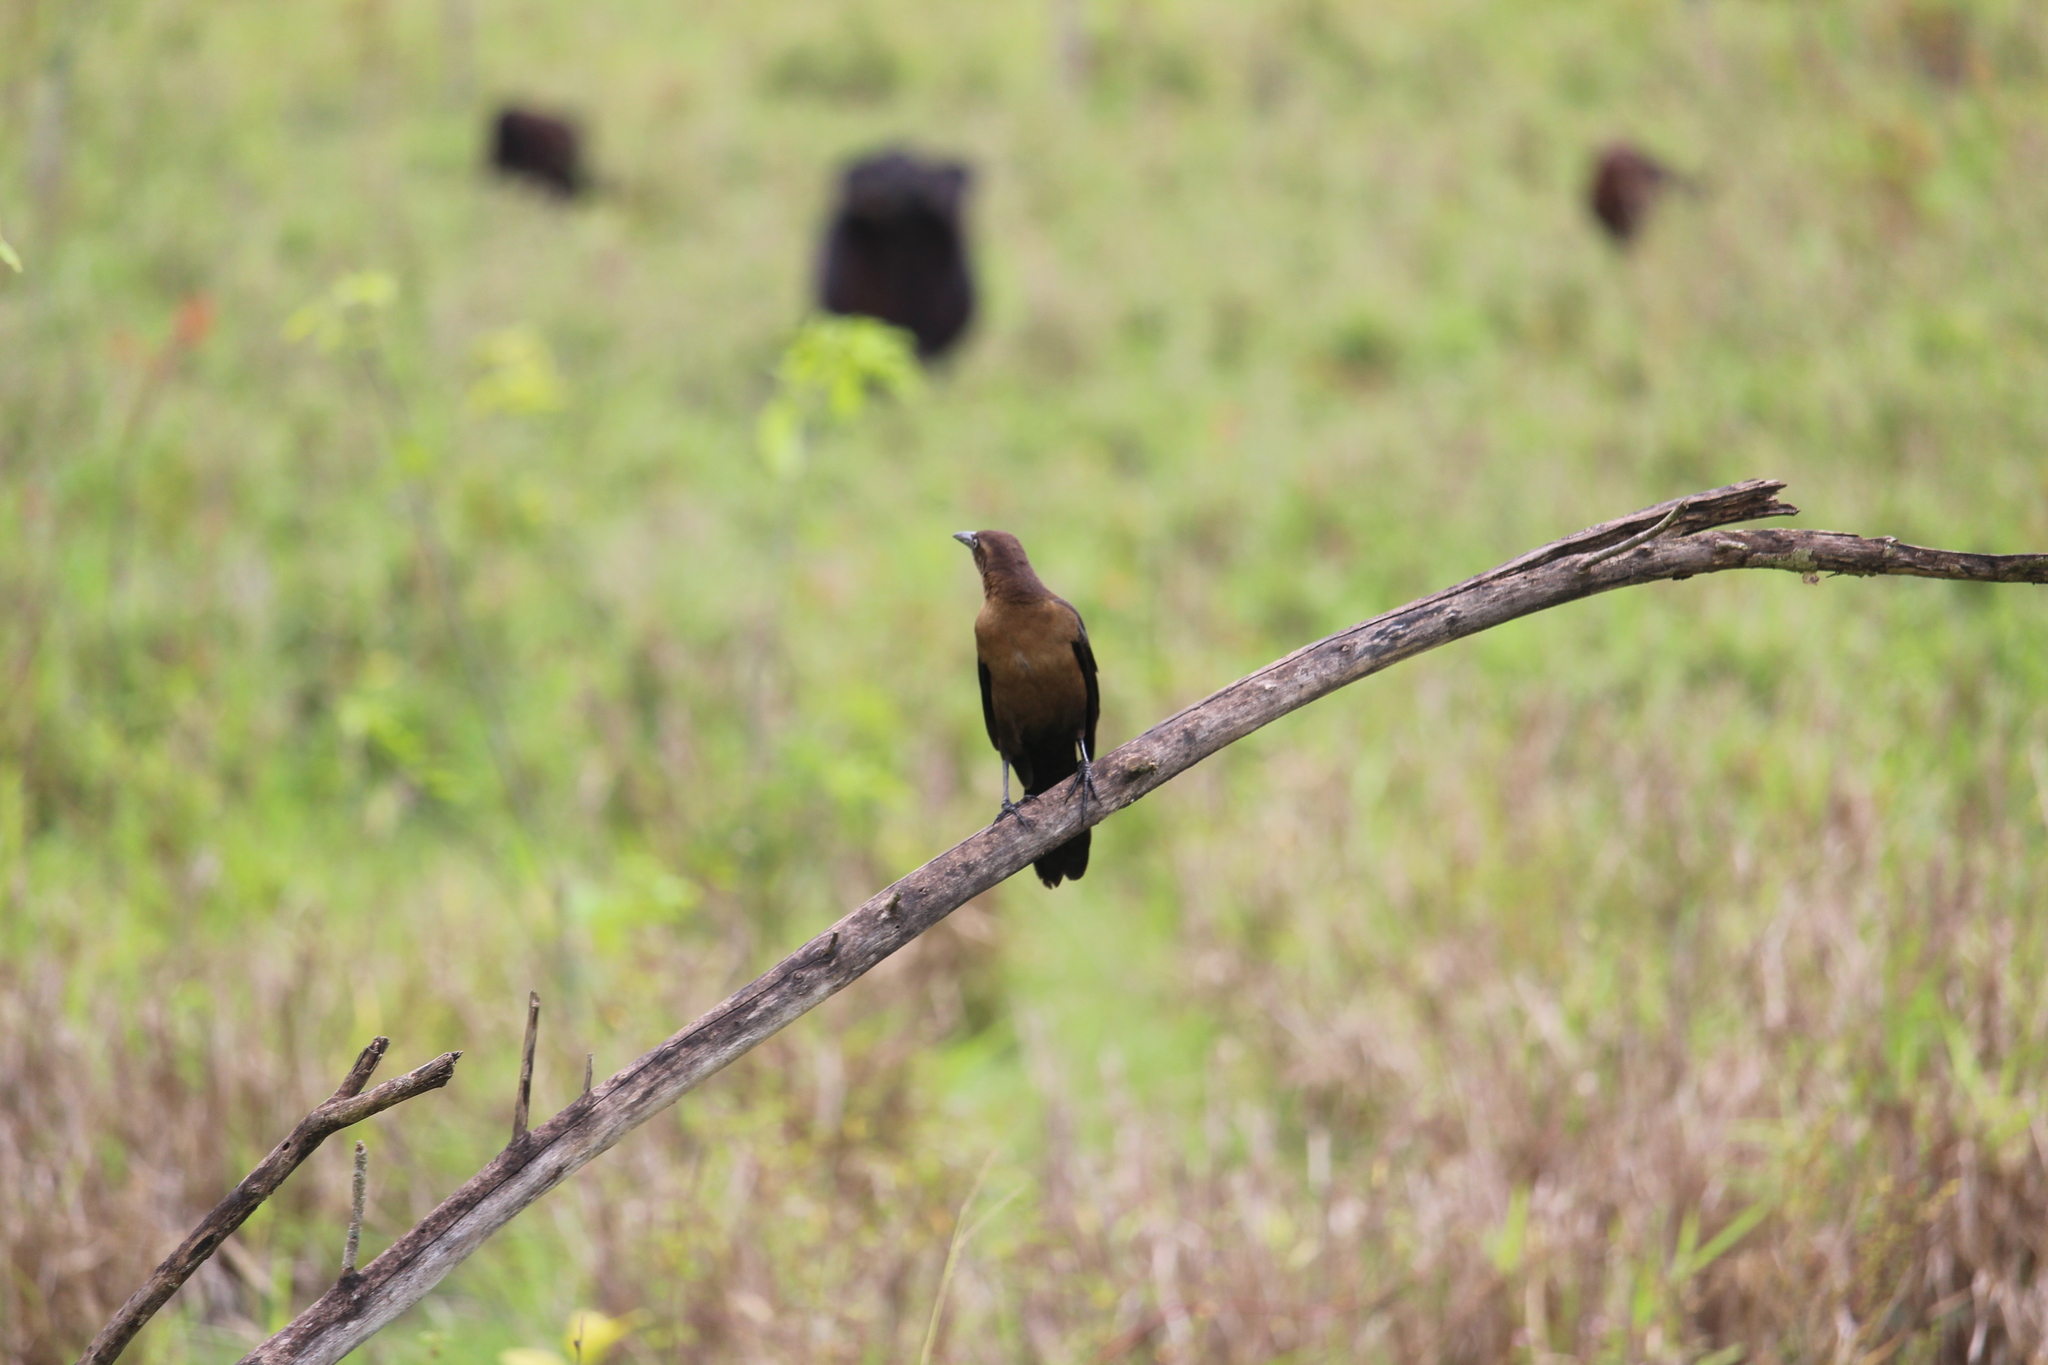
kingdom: Animalia
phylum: Chordata
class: Aves
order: Passeriformes
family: Icteridae
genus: Quiscalus
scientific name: Quiscalus mexicanus
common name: Great-tailed grackle
